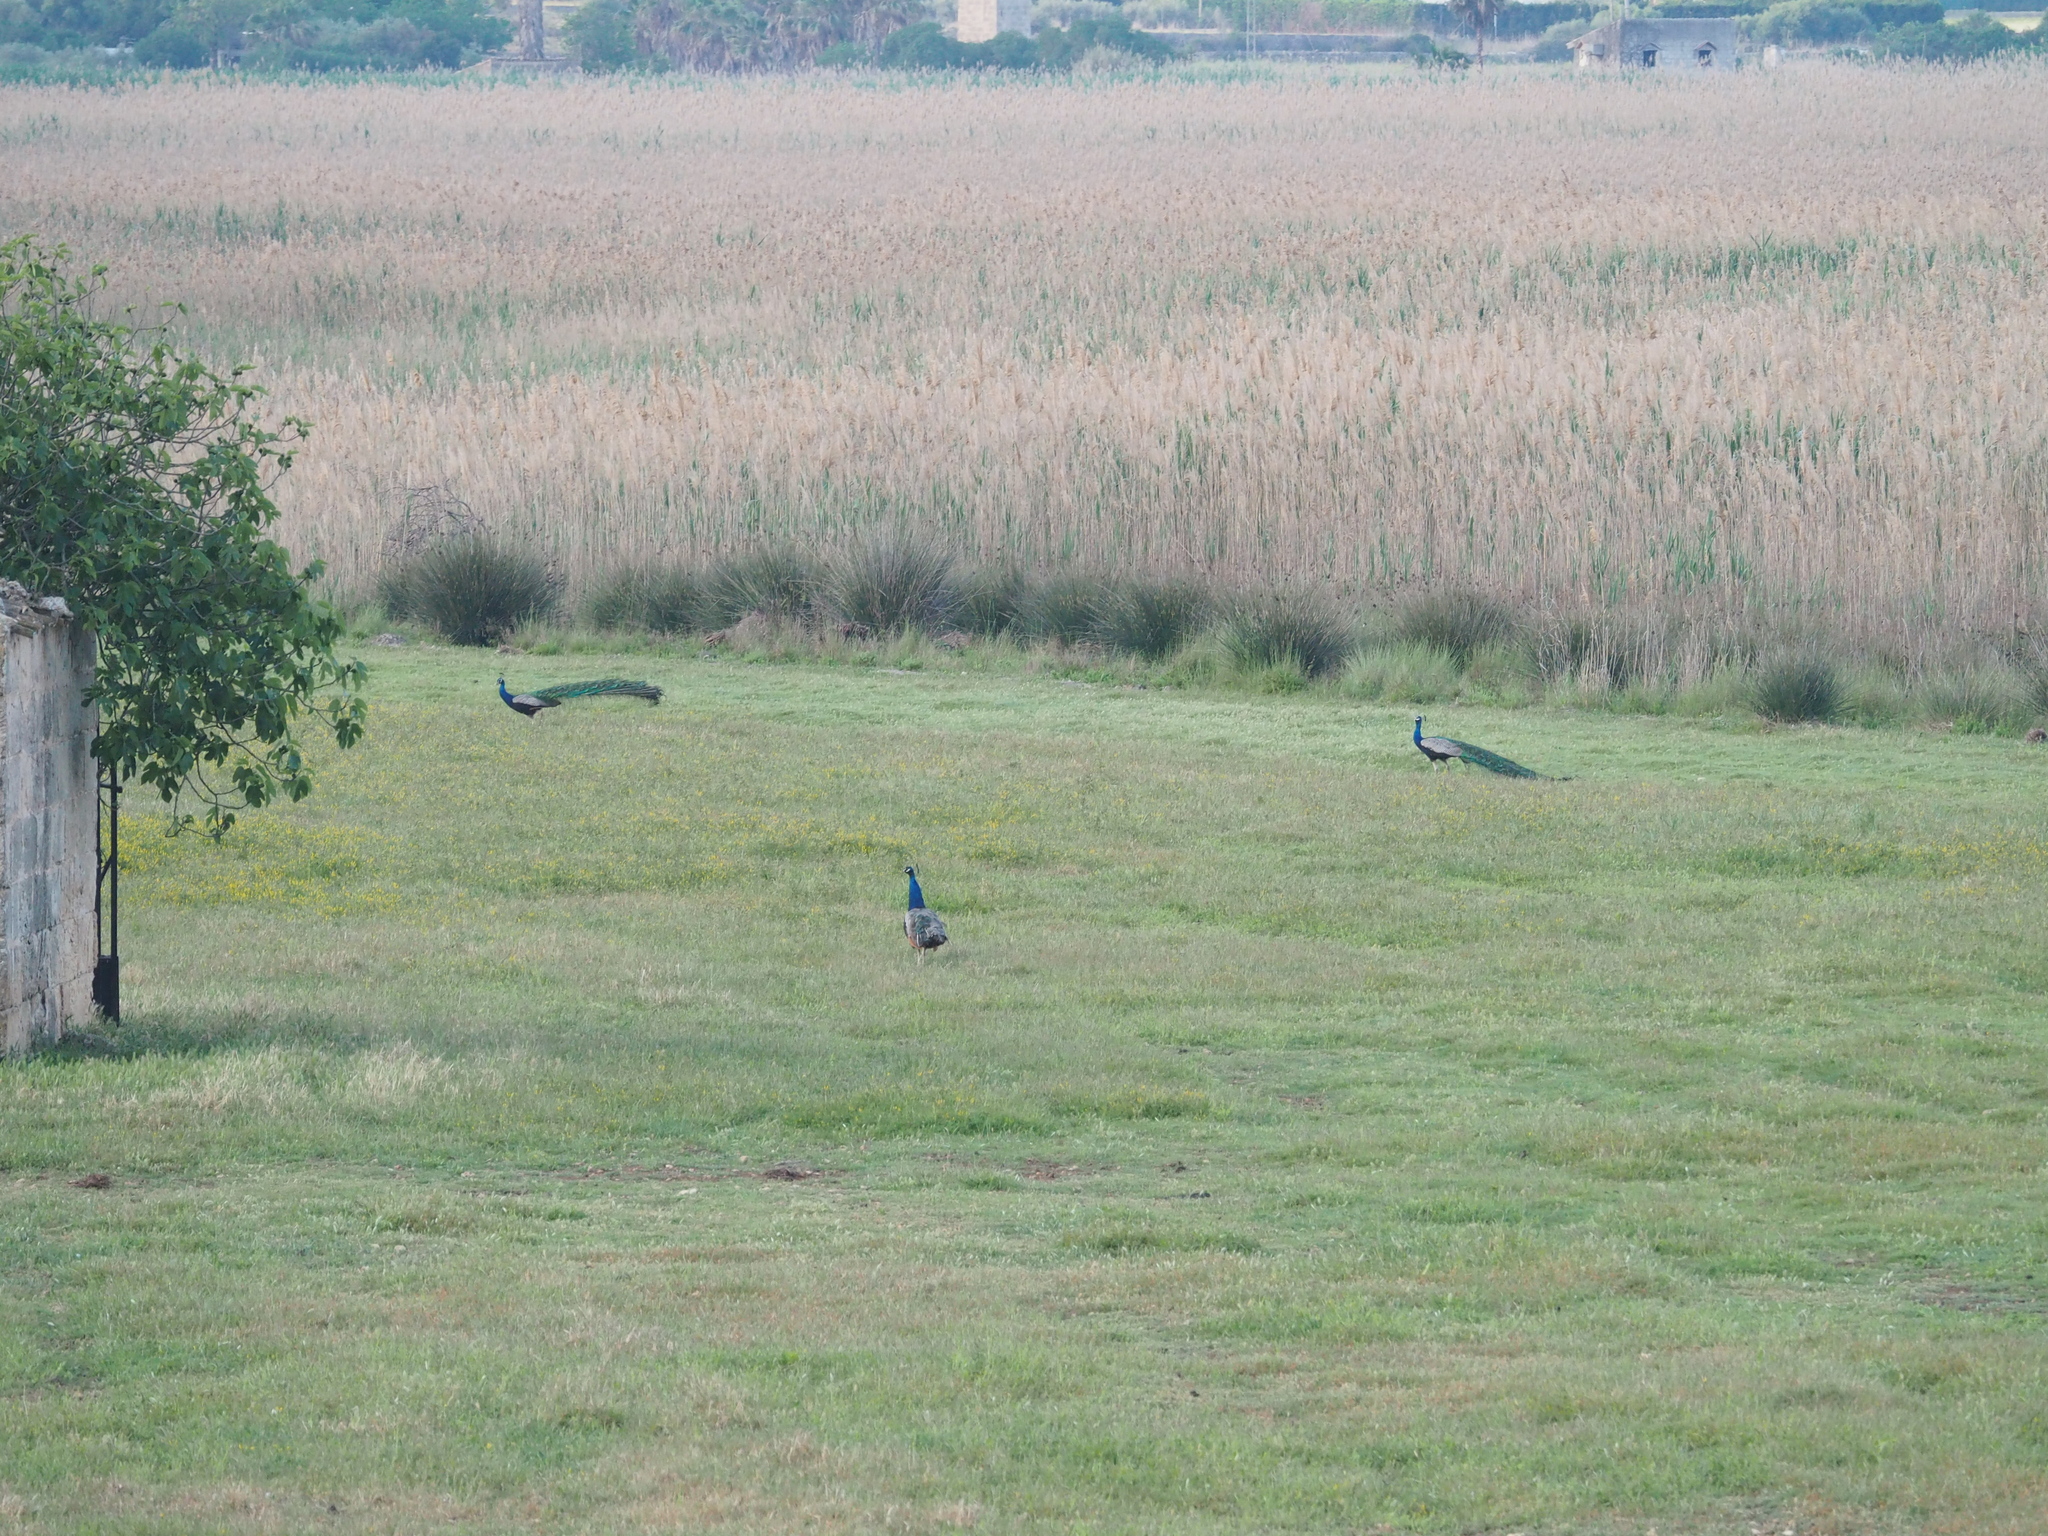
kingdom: Animalia
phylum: Chordata
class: Aves
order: Galliformes
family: Phasianidae
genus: Pavo
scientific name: Pavo cristatus
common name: Indian peafowl
